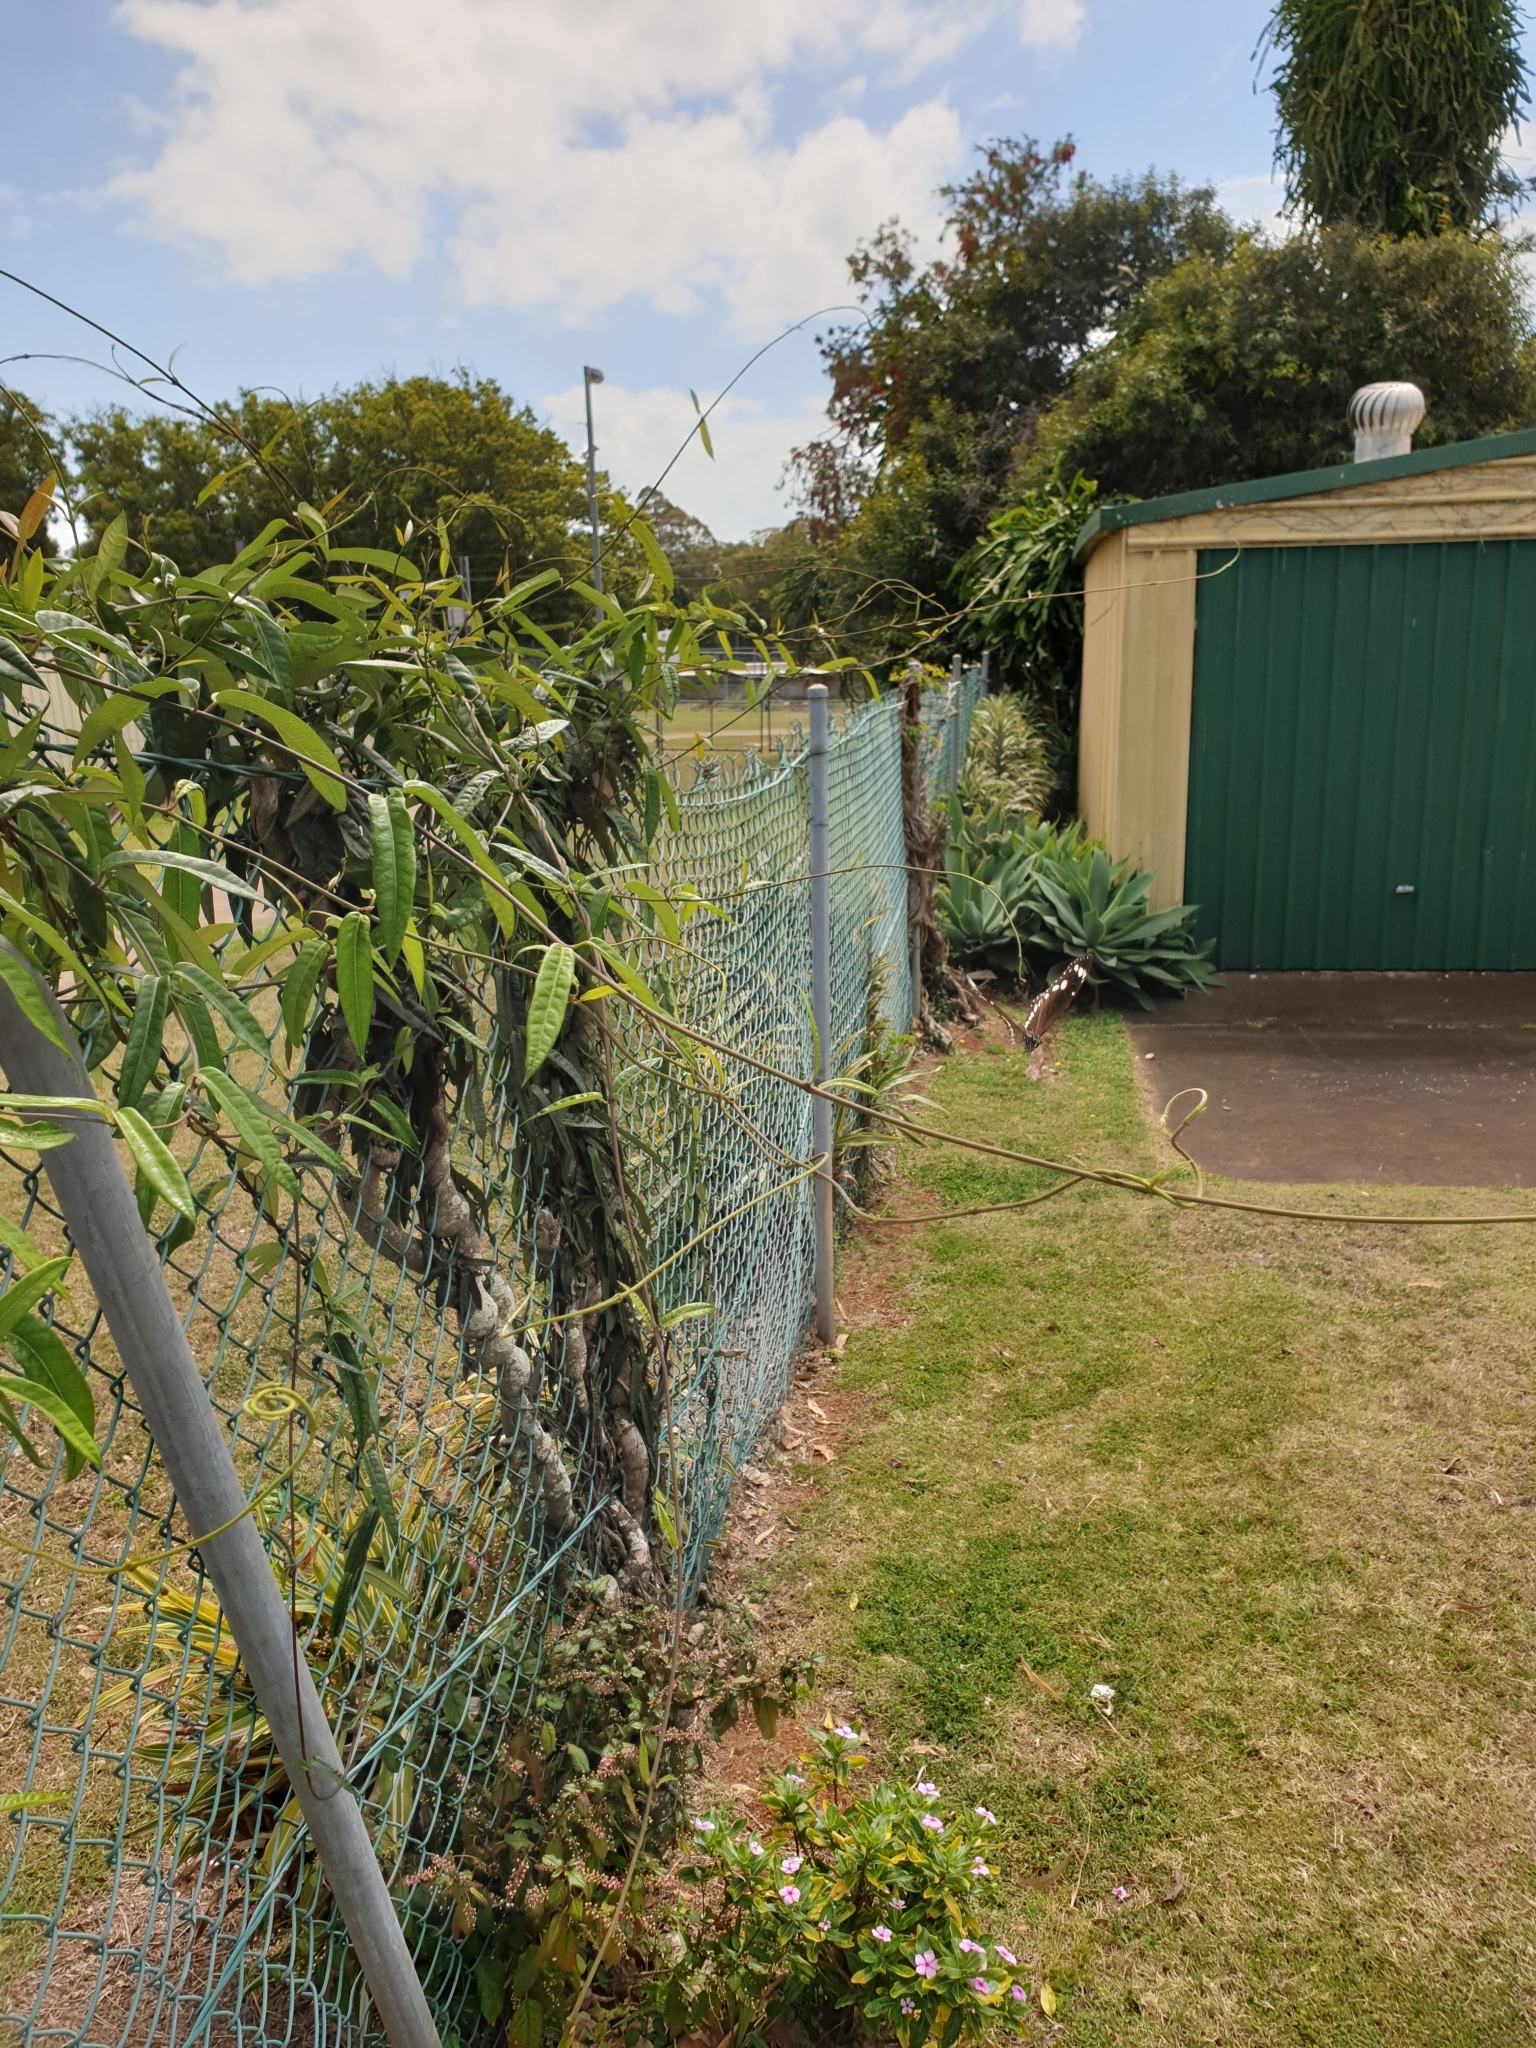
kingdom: Animalia
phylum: Arthropoda
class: Insecta
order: Lepidoptera
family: Nymphalidae
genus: Euploea
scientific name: Euploea core
